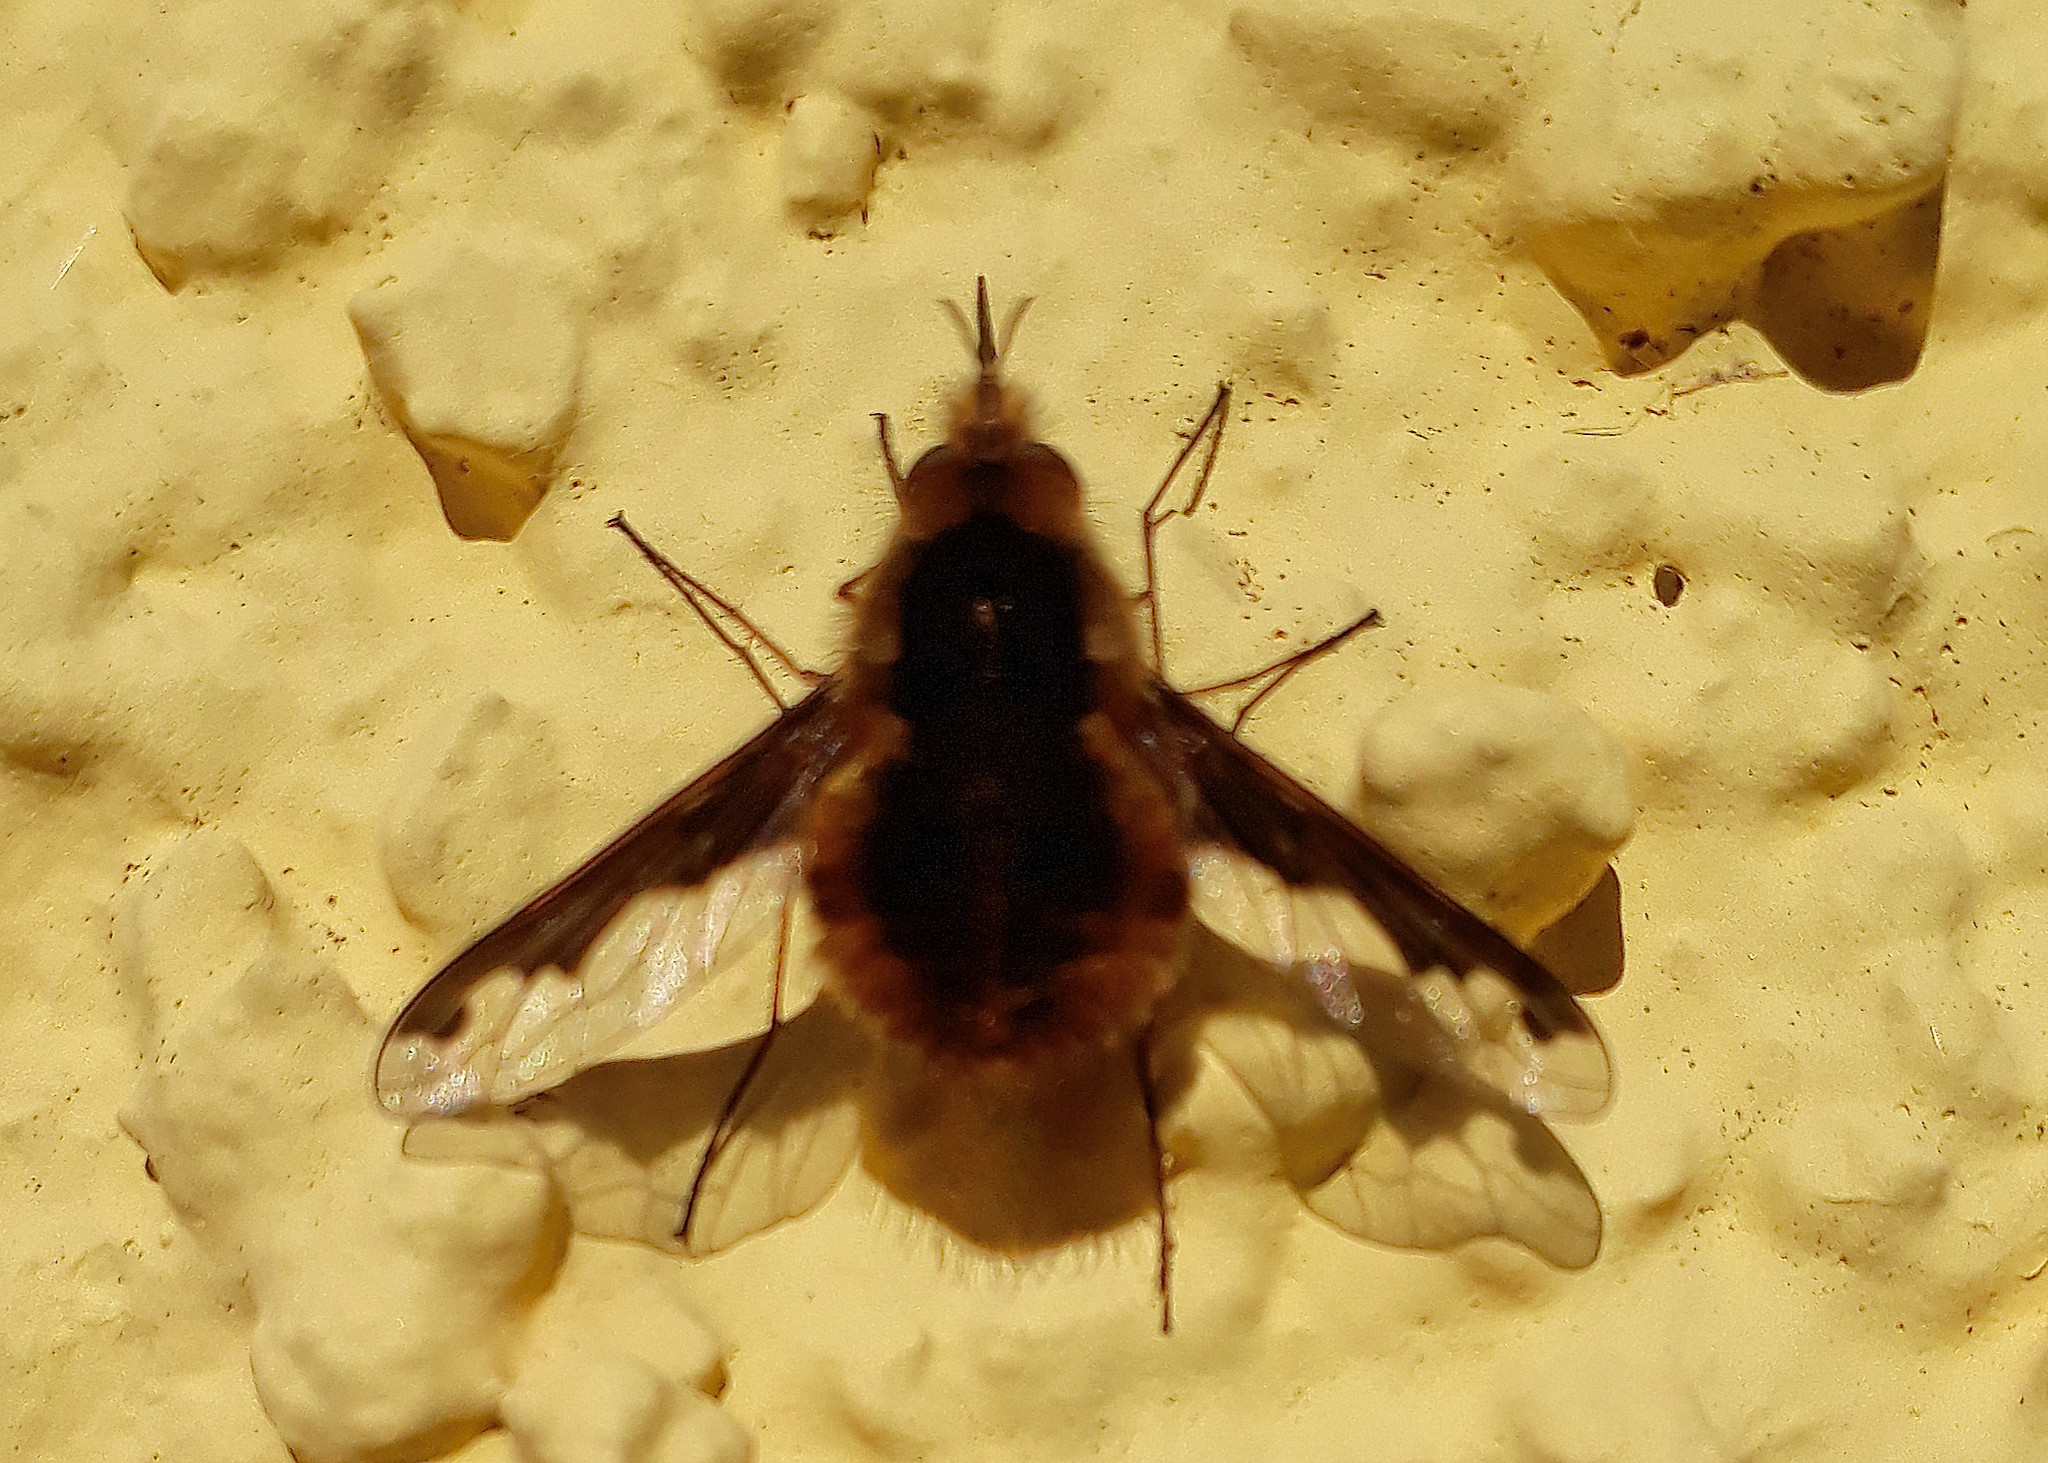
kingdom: Animalia
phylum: Arthropoda
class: Insecta
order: Diptera
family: Bombyliidae
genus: Bombylius
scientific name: Bombylius major
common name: Bee fly
